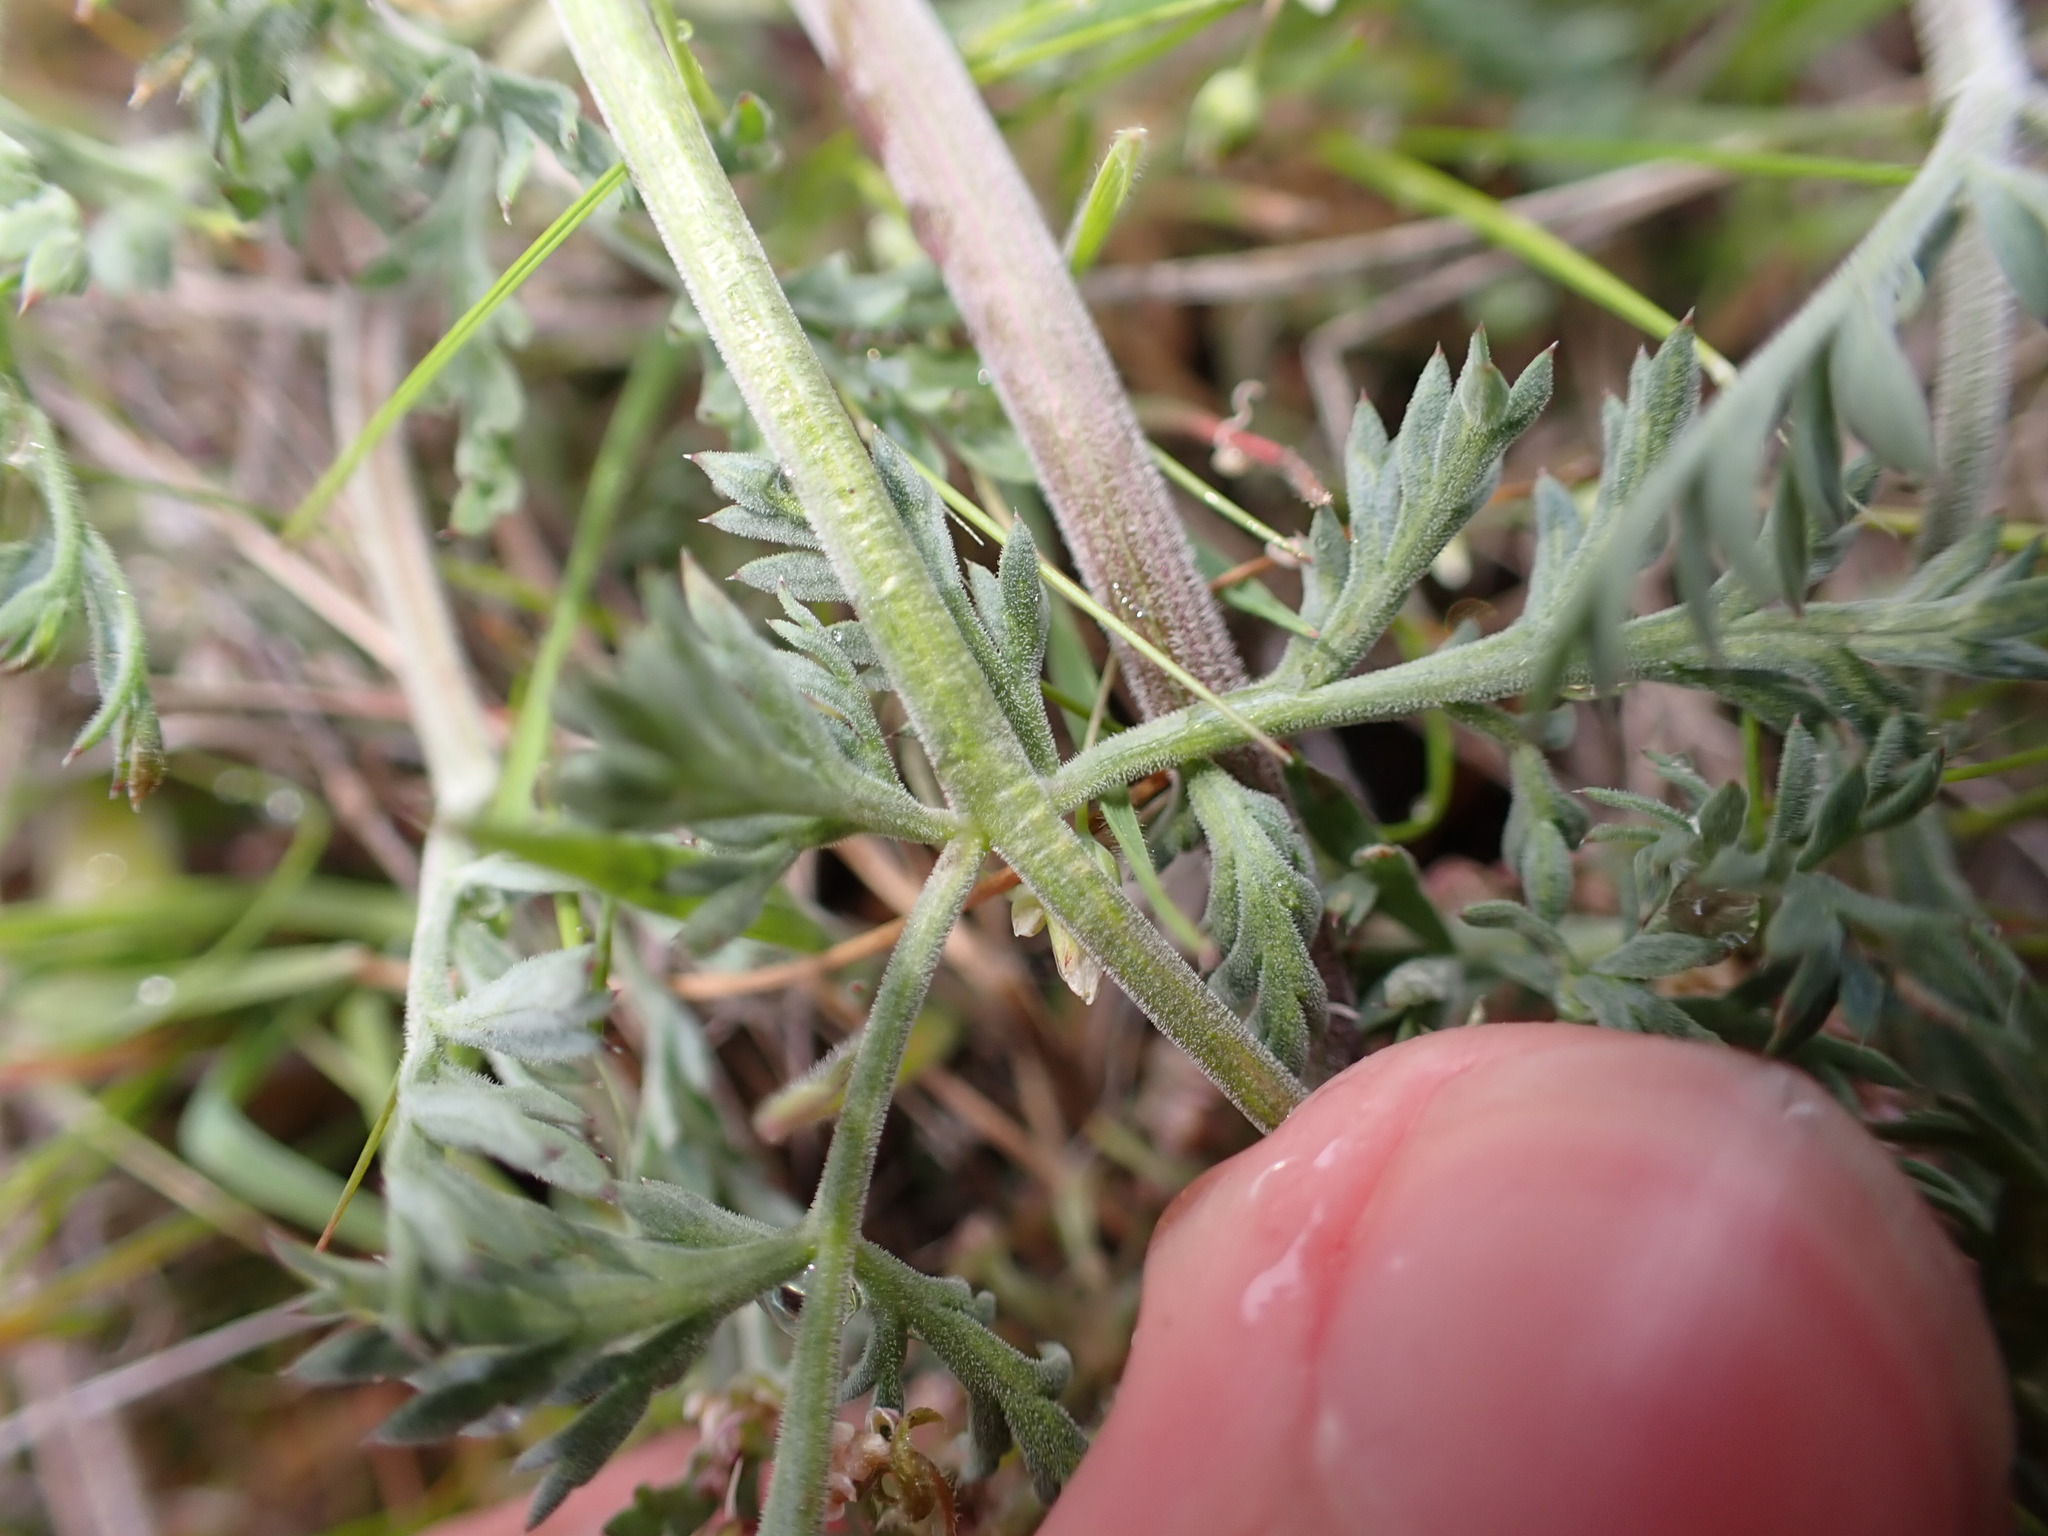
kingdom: Plantae
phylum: Tracheophyta
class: Magnoliopsida
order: Apiales
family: Apiaceae
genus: Lomatium
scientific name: Lomatium macrocarpum
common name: Big-seed biscuitroot
